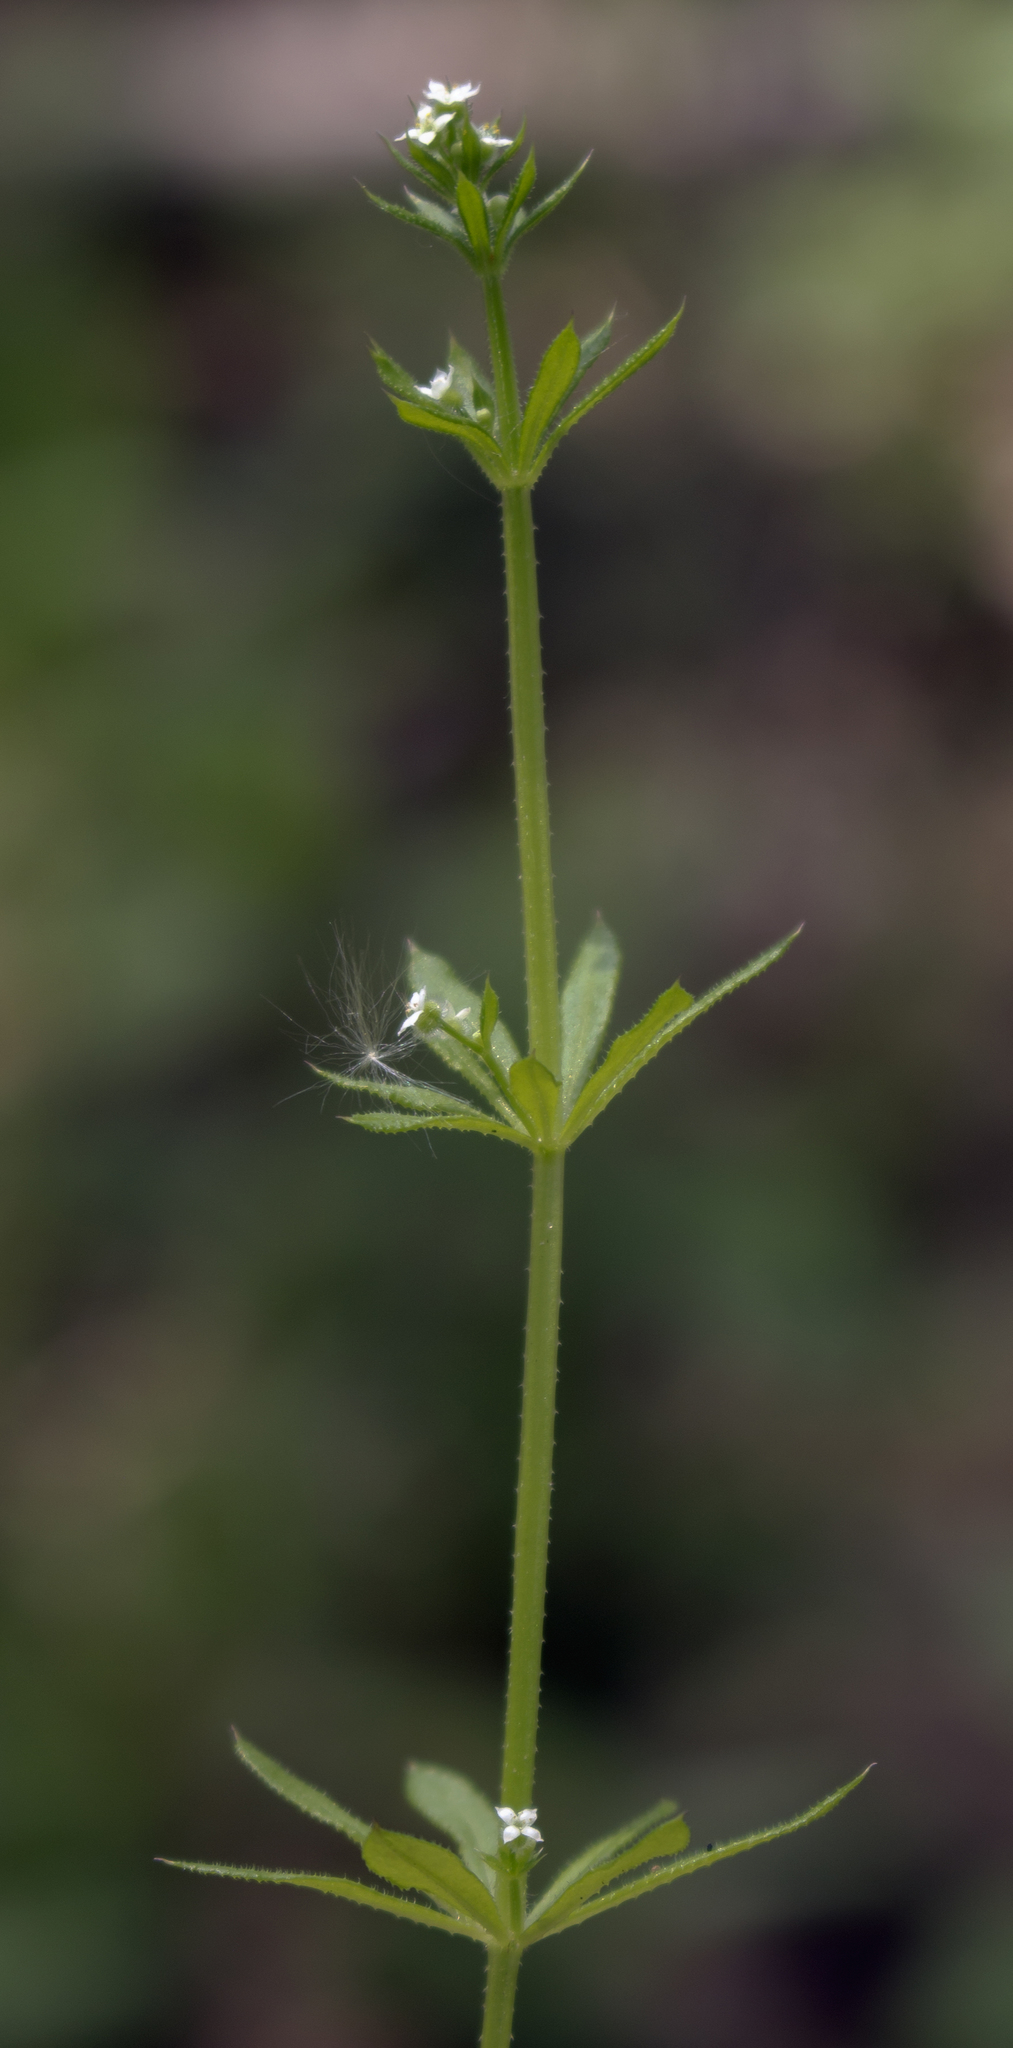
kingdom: Plantae
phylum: Tracheophyta
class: Magnoliopsida
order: Gentianales
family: Rubiaceae
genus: Galium
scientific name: Galium aparine
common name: Cleavers
